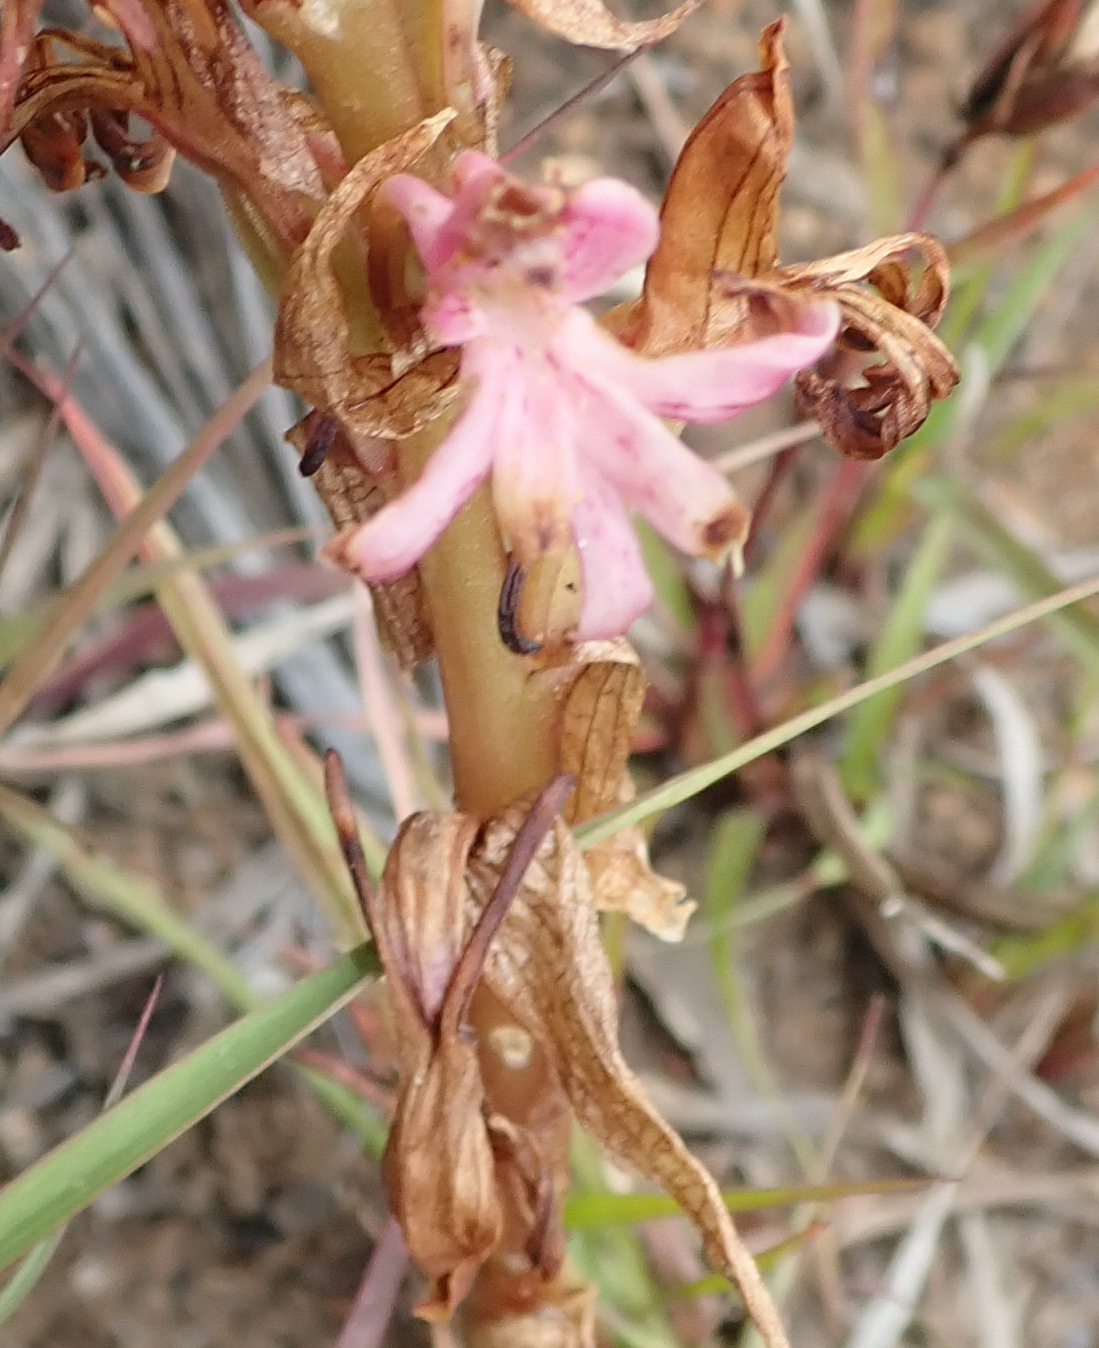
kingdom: Plantae
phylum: Tracheophyta
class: Liliopsida
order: Asparagales
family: Orchidaceae
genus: Satyrium
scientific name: Satyrium erectum
